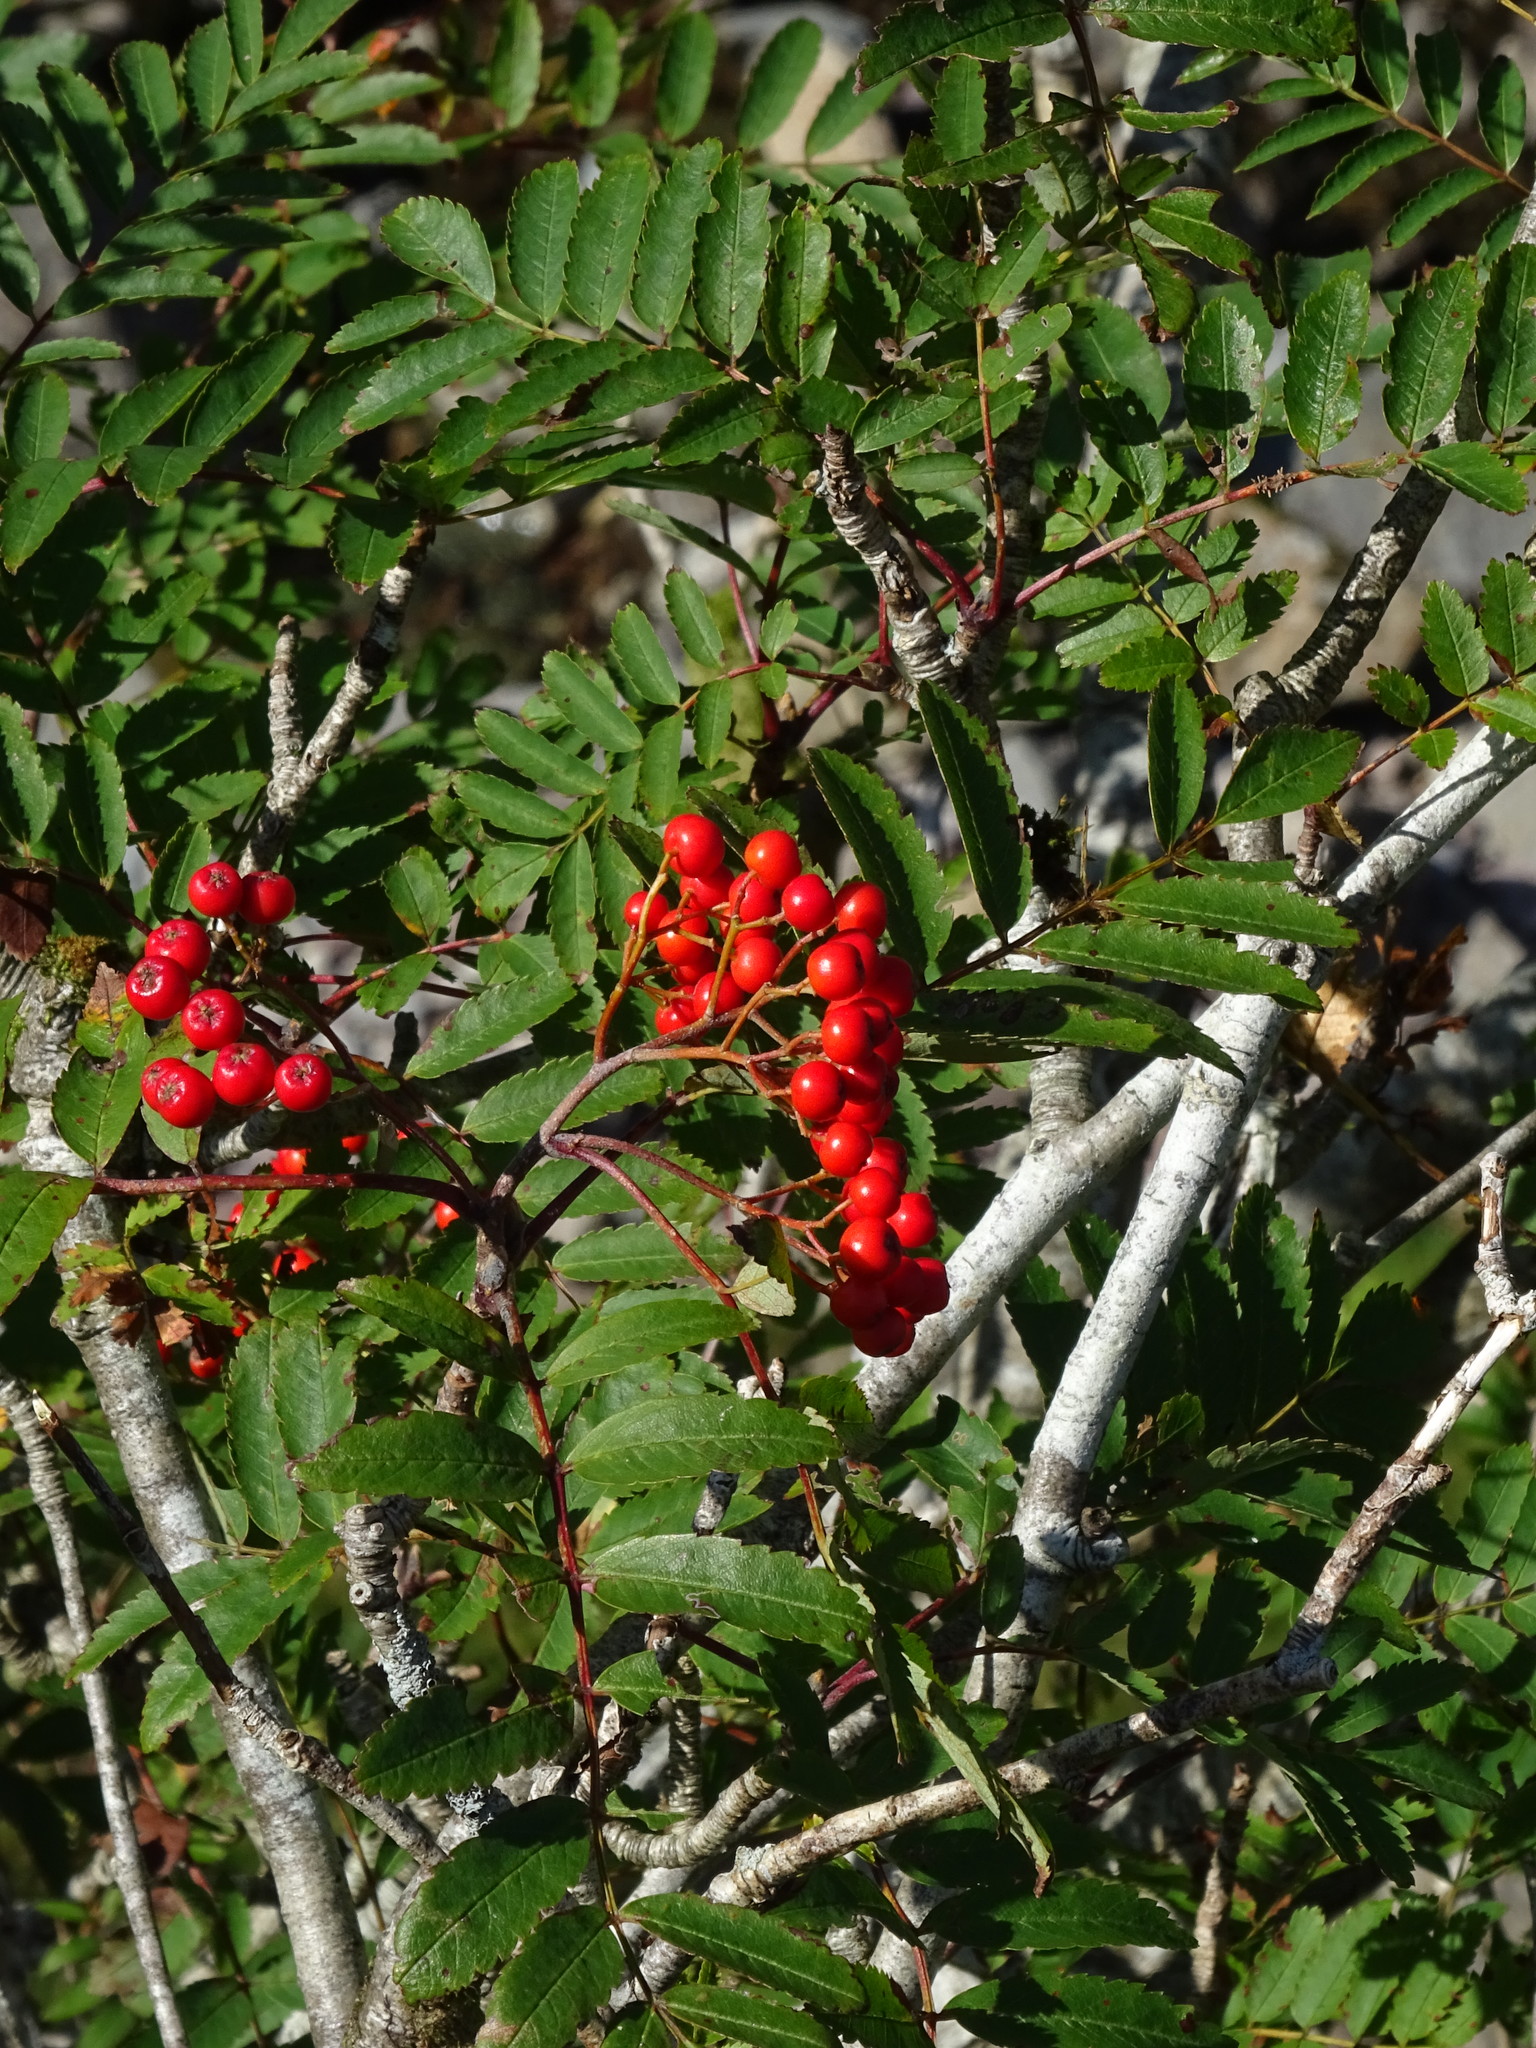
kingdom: Plantae
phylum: Tracheophyta
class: Magnoliopsida
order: Rosales
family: Rosaceae
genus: Sorbus
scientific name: Sorbus aucuparia
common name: Rowan
